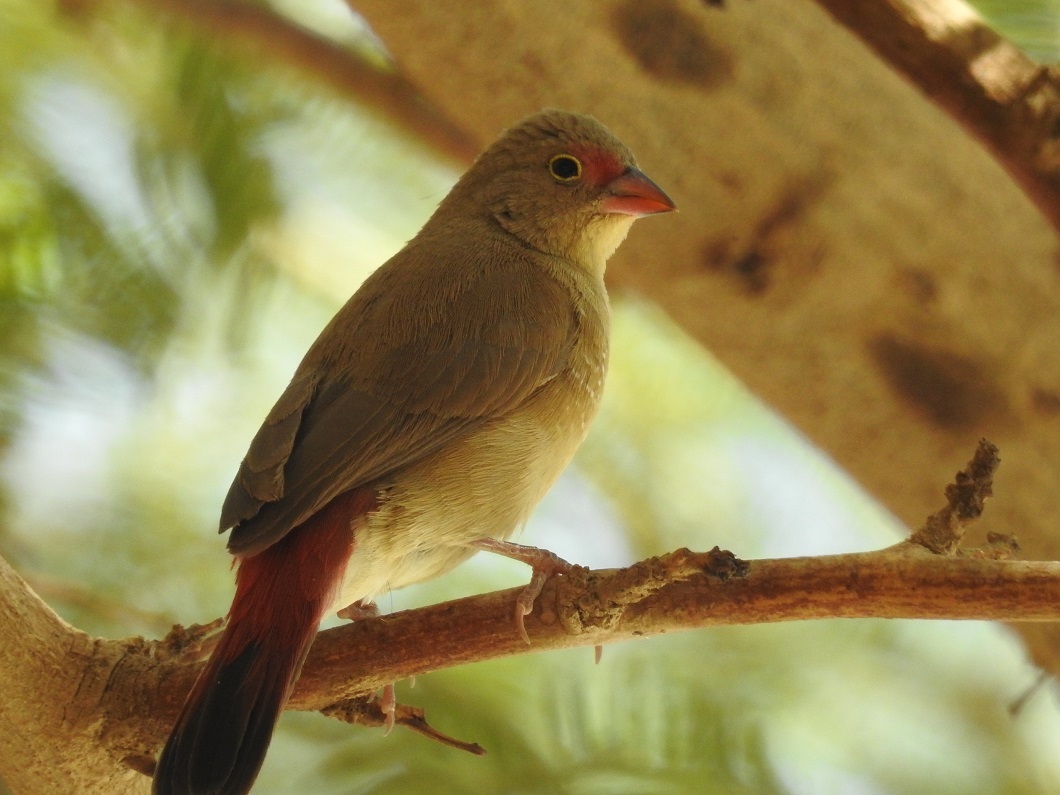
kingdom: Animalia
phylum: Chordata
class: Aves
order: Passeriformes
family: Estrildidae
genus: Lagonosticta
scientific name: Lagonosticta senegala
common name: Red-billed firefinch
